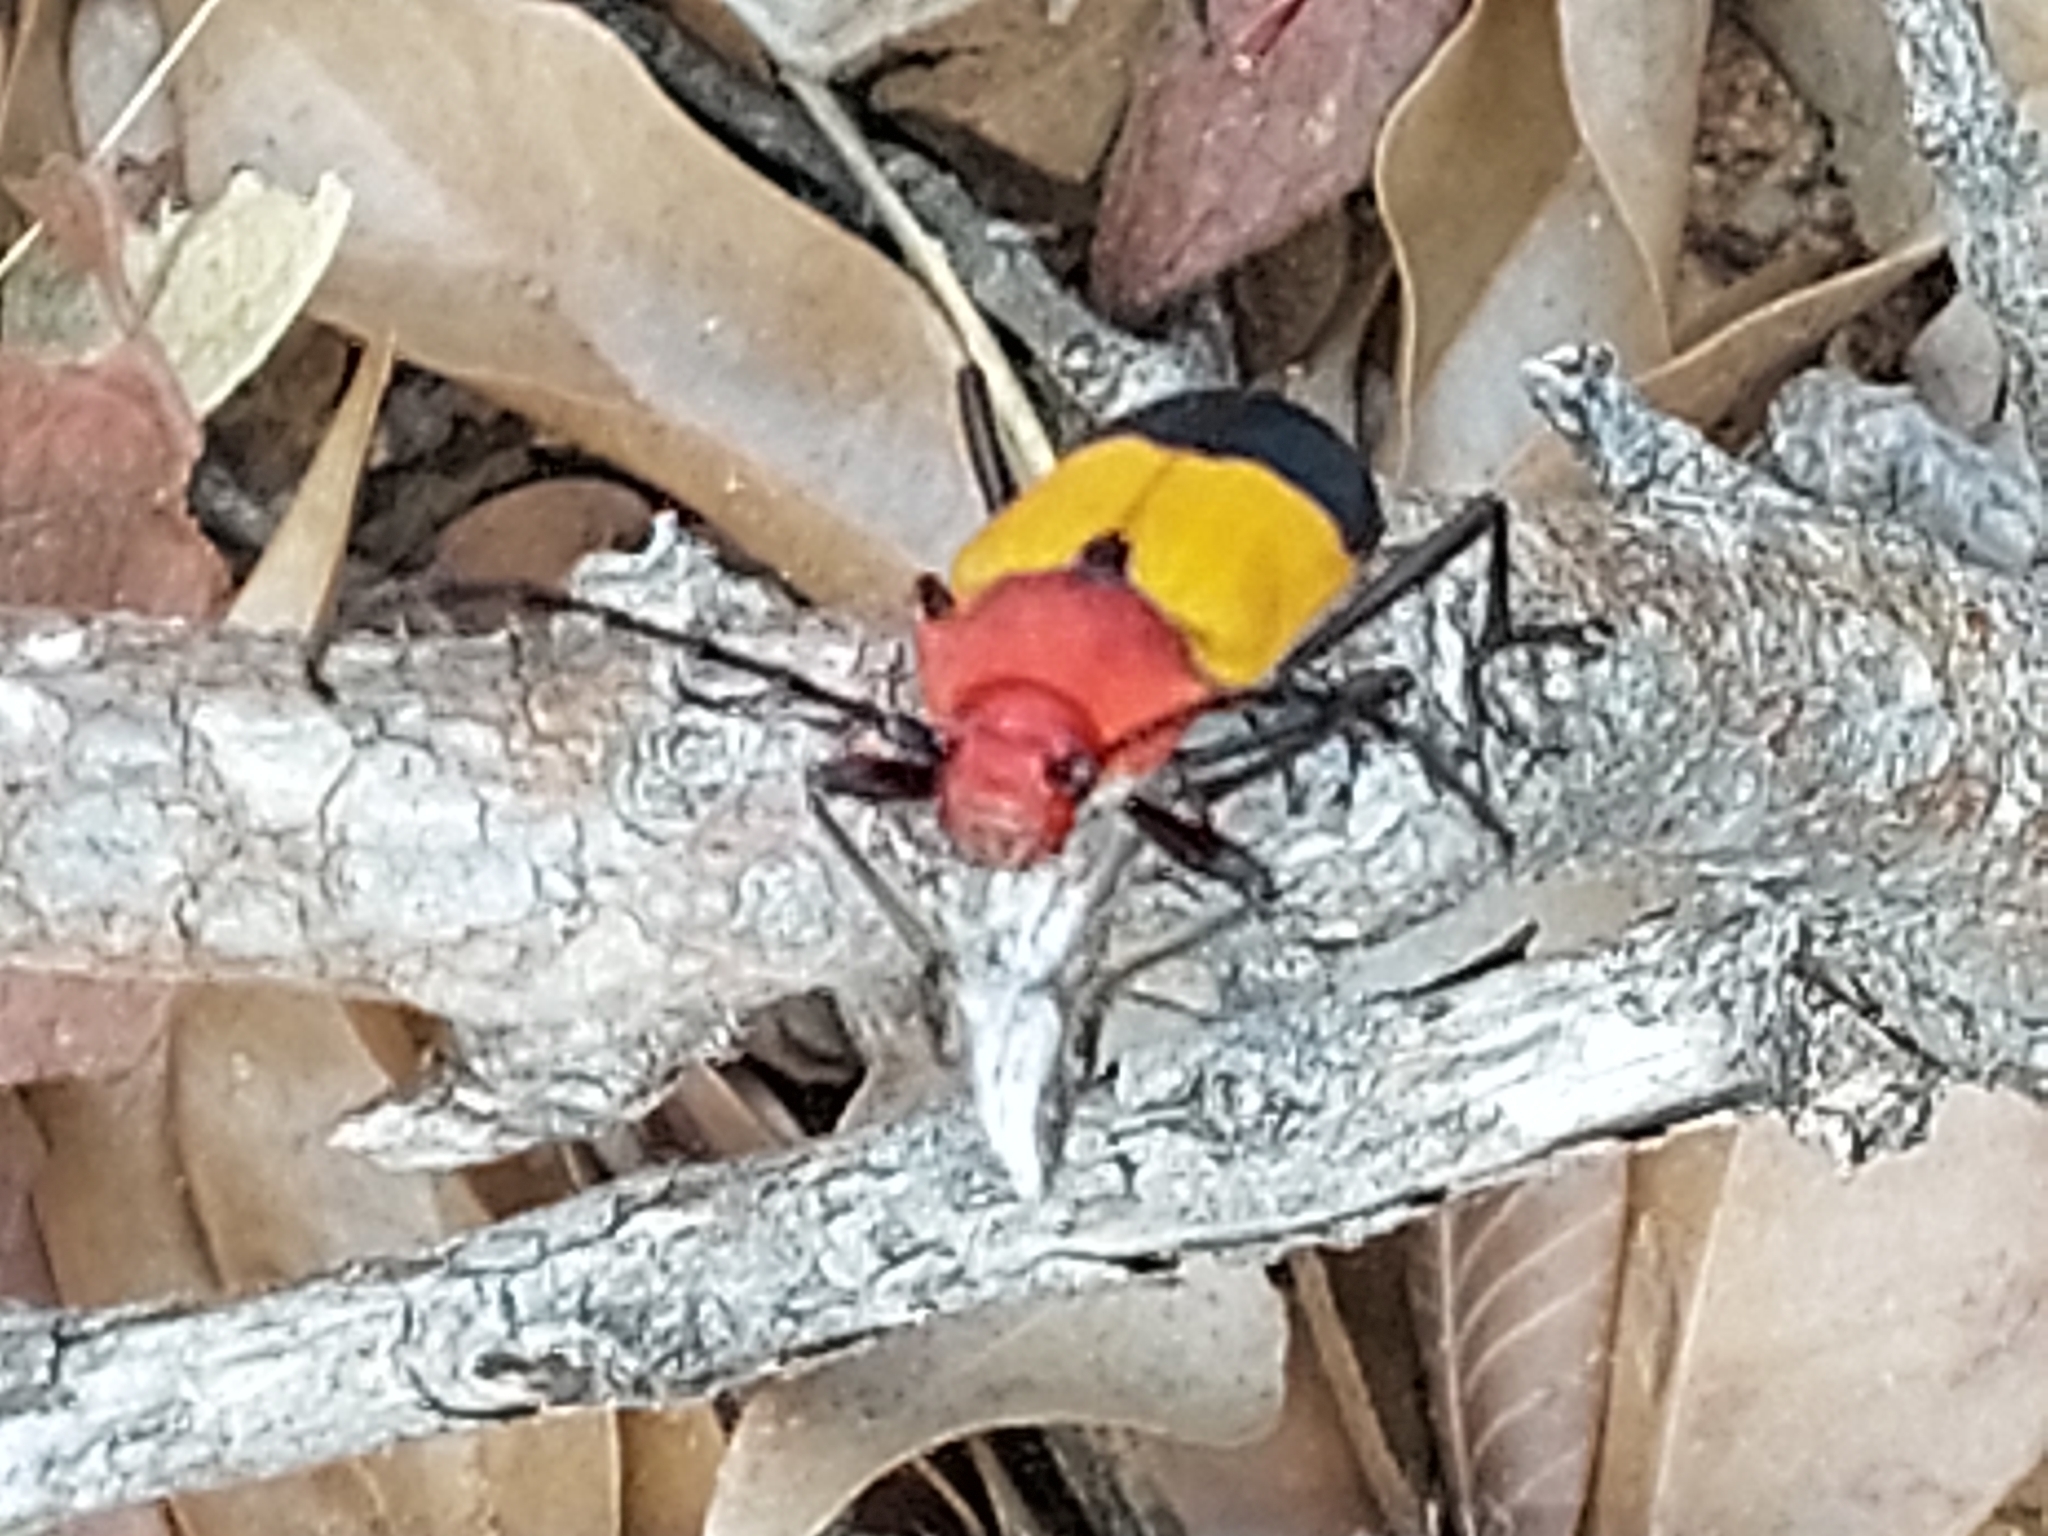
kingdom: Animalia
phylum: Arthropoda
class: Insecta
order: Coleoptera
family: Cerambycidae
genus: Purpuricenus
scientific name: Purpuricenus laetus
